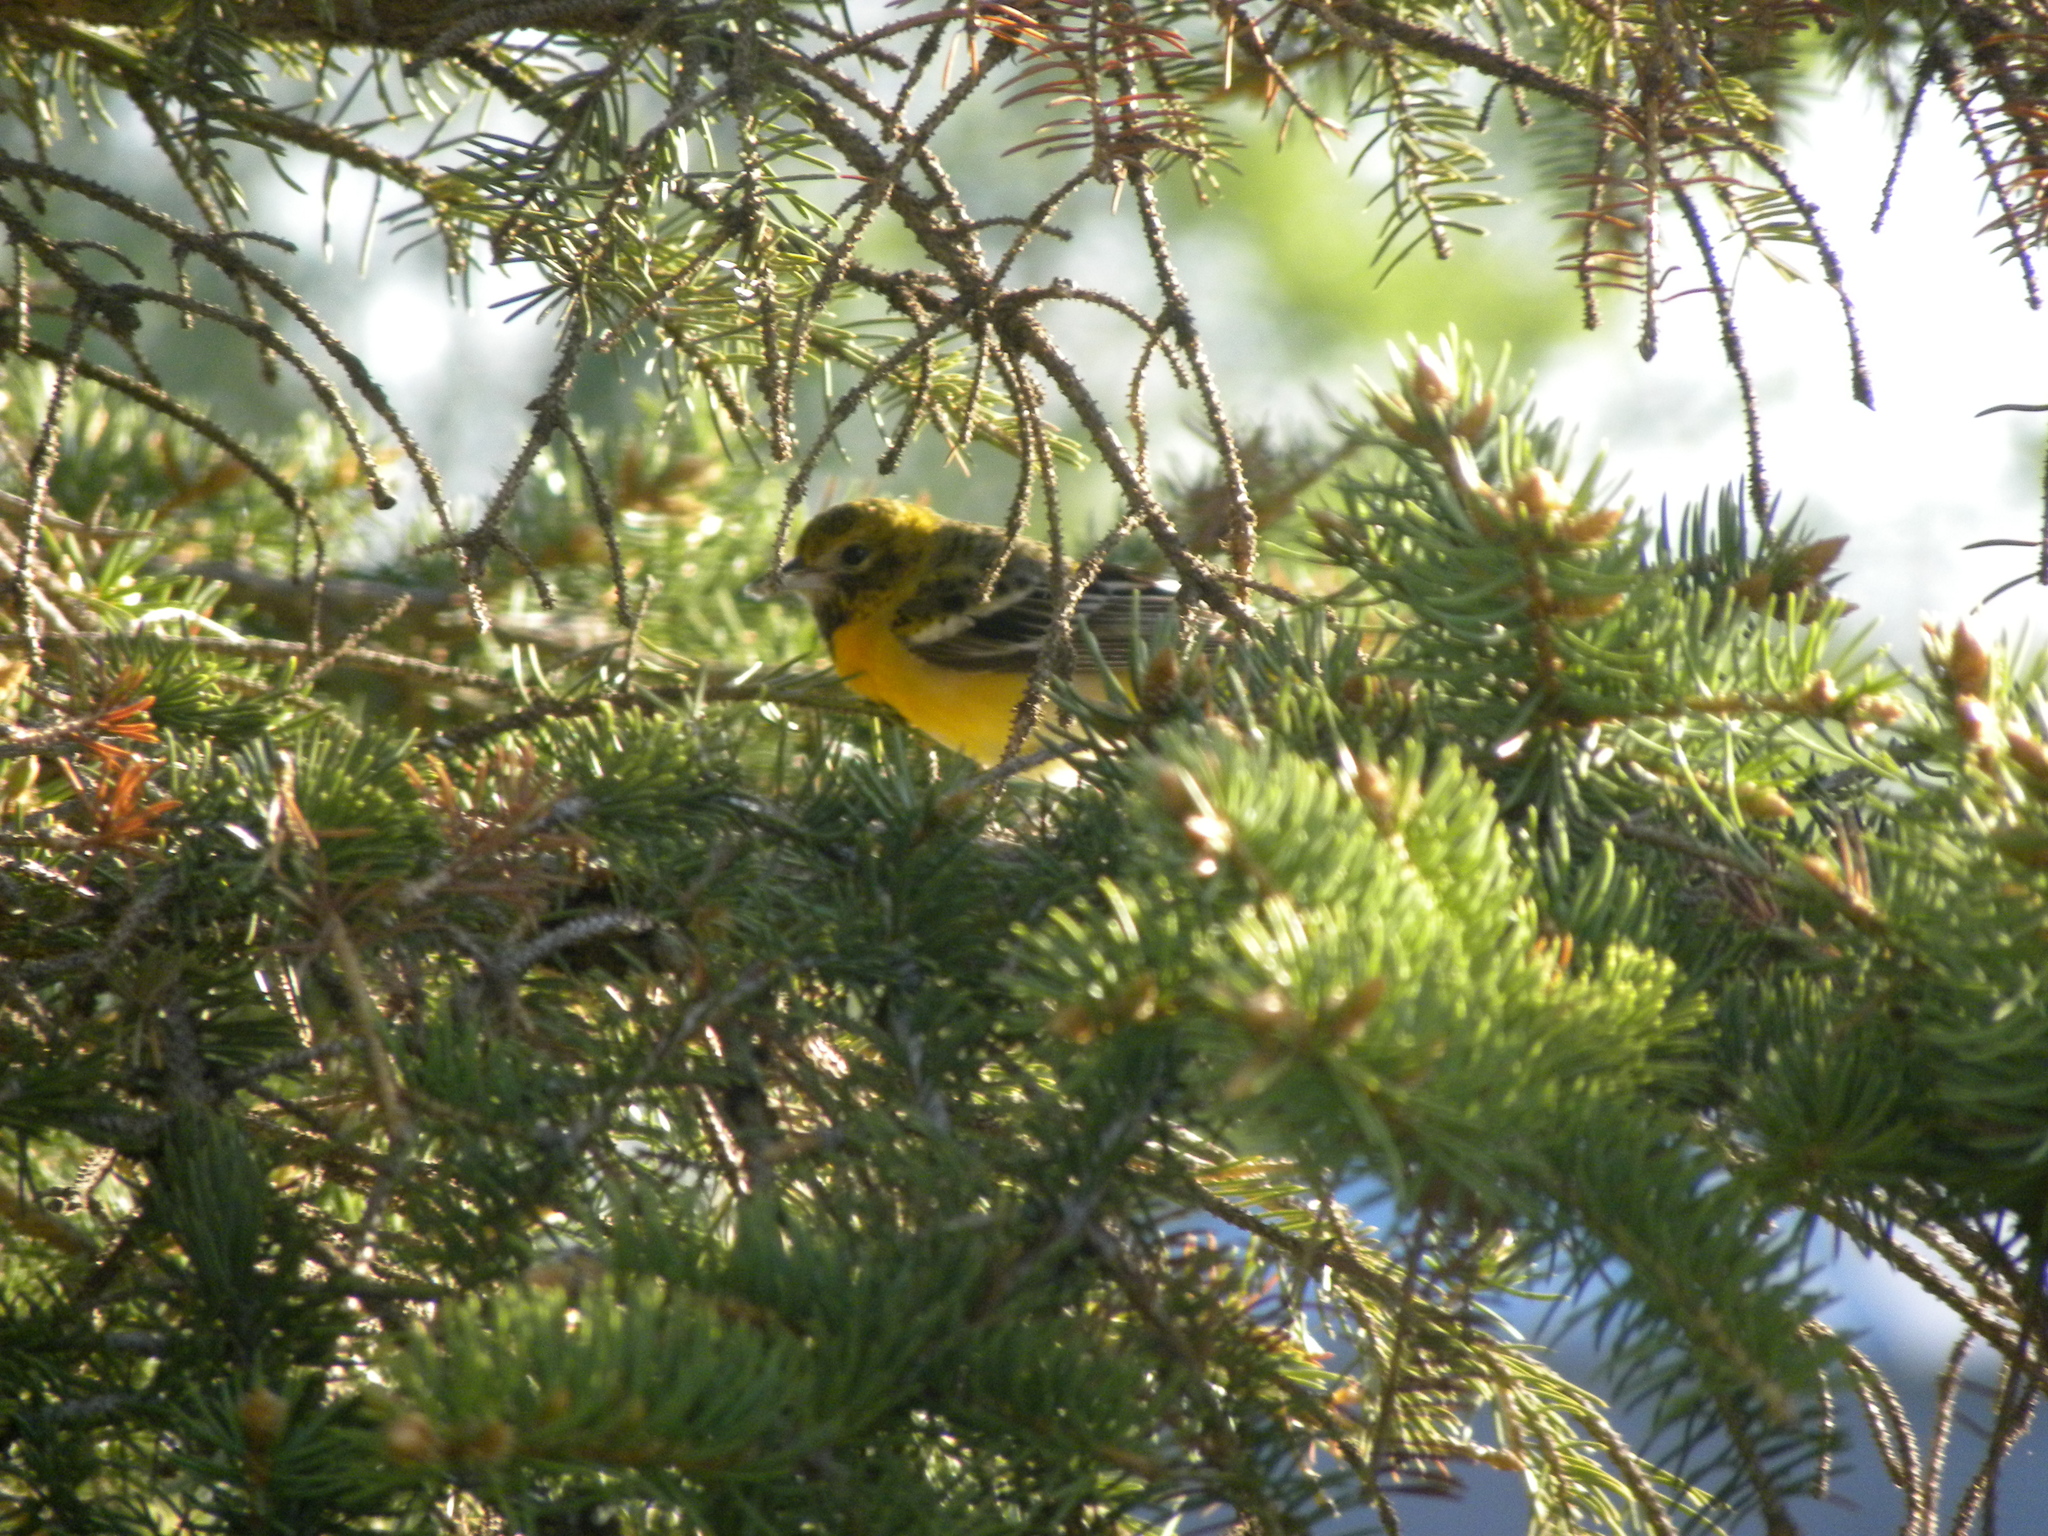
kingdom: Animalia
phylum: Chordata
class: Aves
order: Passeriformes
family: Icteridae
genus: Icterus
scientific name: Icterus galbula
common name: Baltimore oriole
